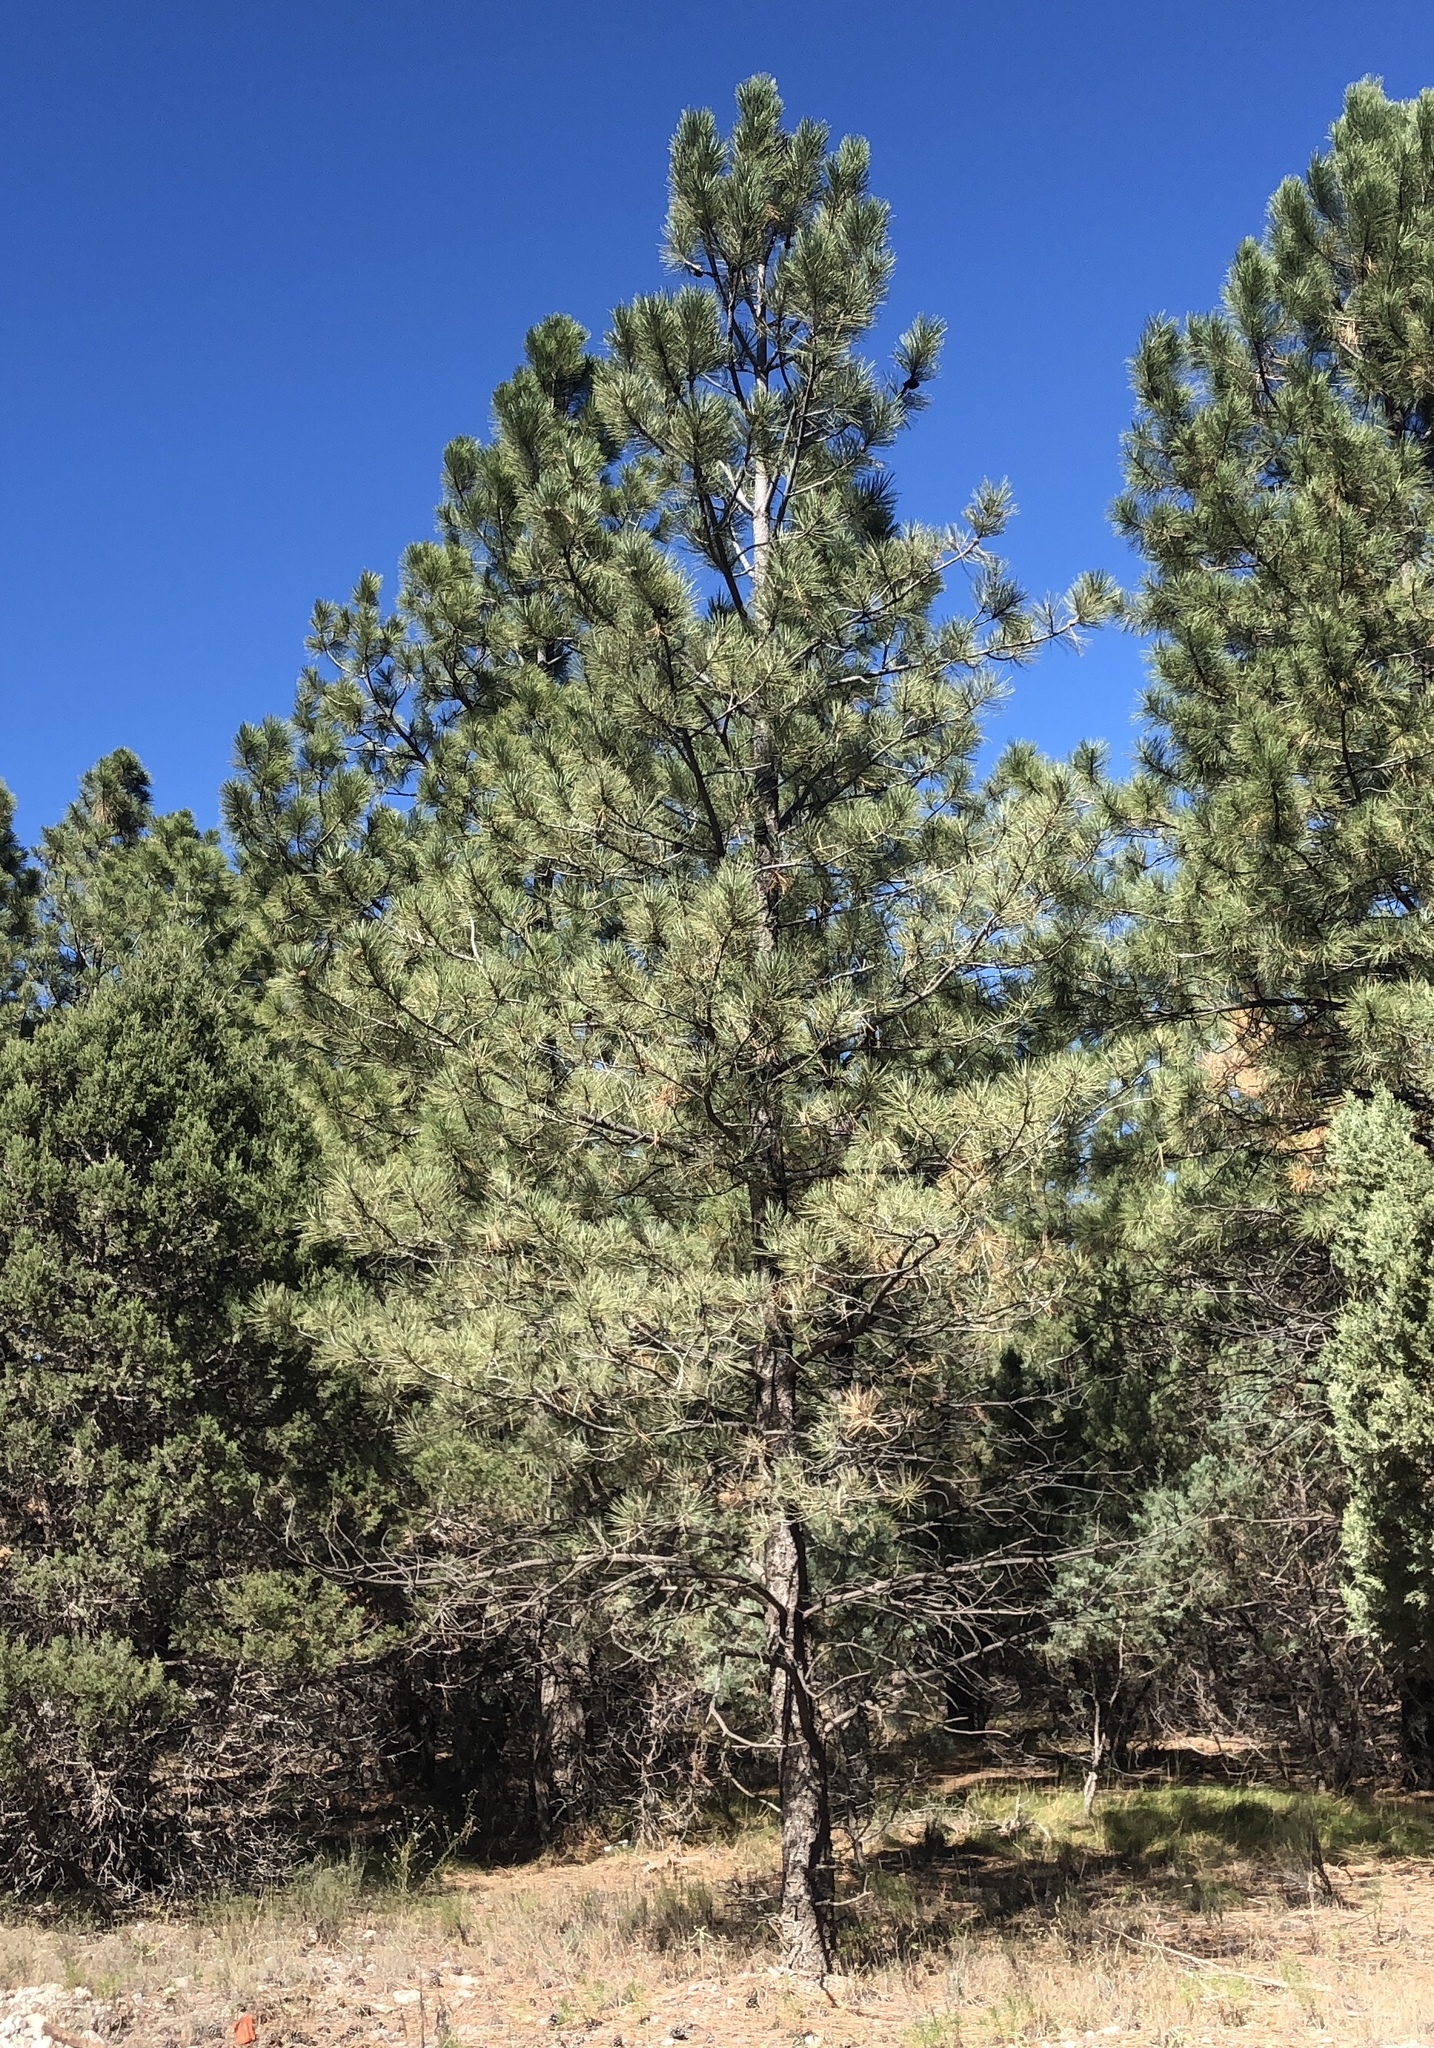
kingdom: Plantae
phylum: Tracheophyta
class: Pinopsida
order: Pinales
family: Pinaceae
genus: Pinus
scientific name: Pinus ponderosa
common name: Western yellow-pine
